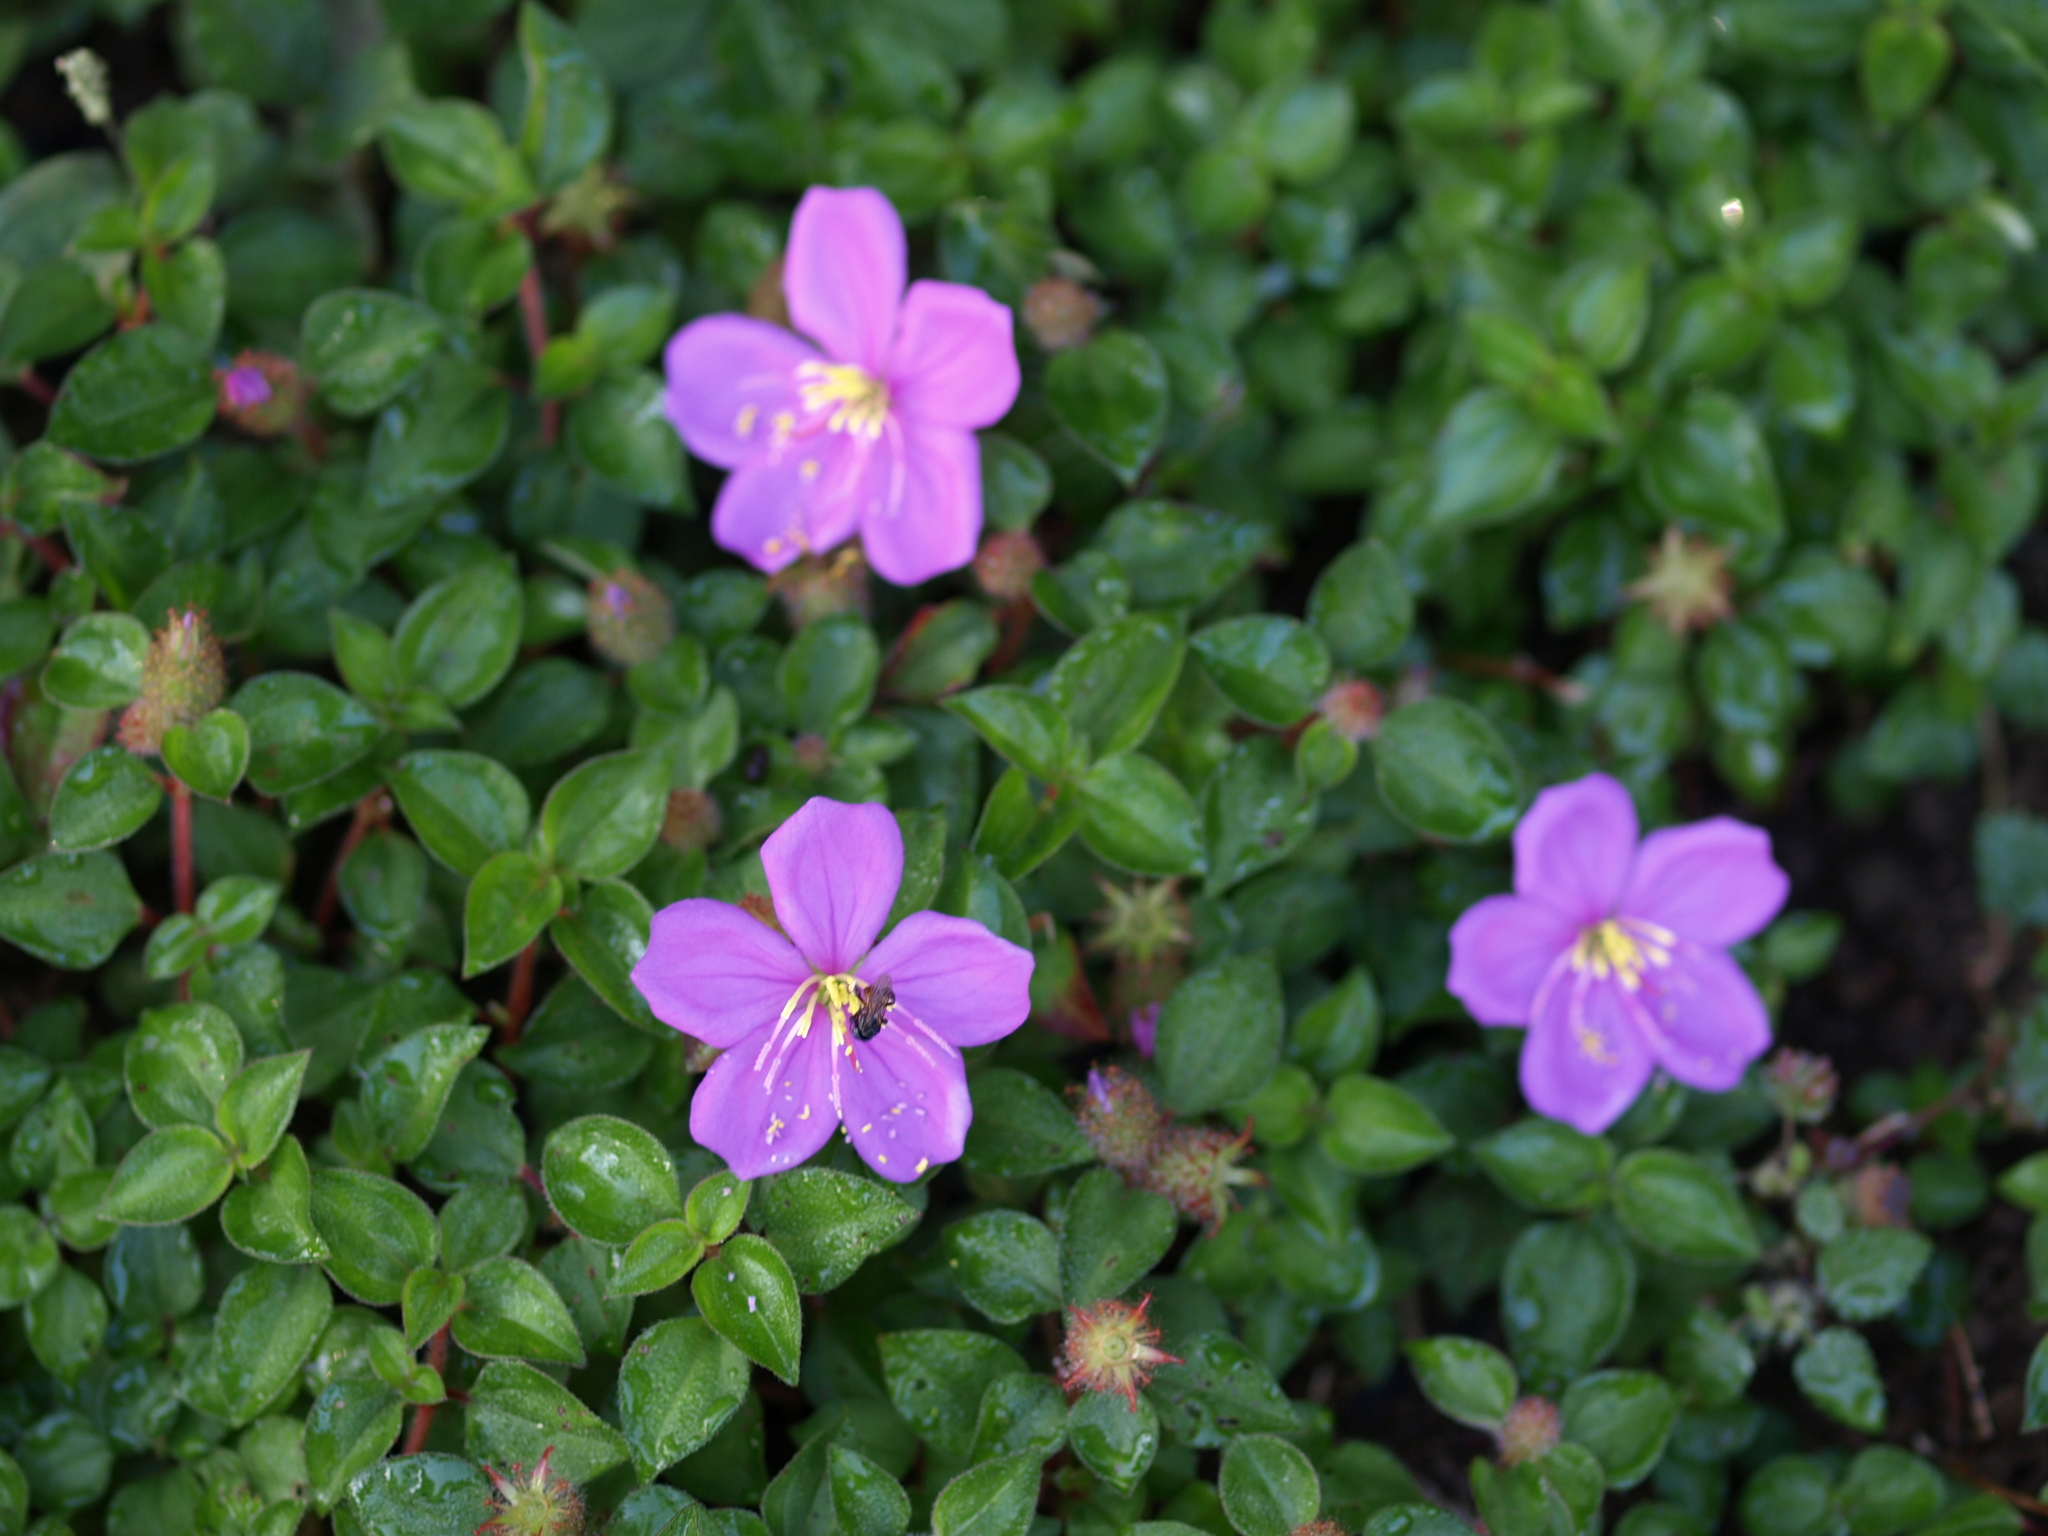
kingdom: Plantae
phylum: Tracheophyta
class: Magnoliopsida
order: Myrtales
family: Melastomataceae
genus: Heterotis
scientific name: Heterotis rotundifolia
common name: Pinklady
